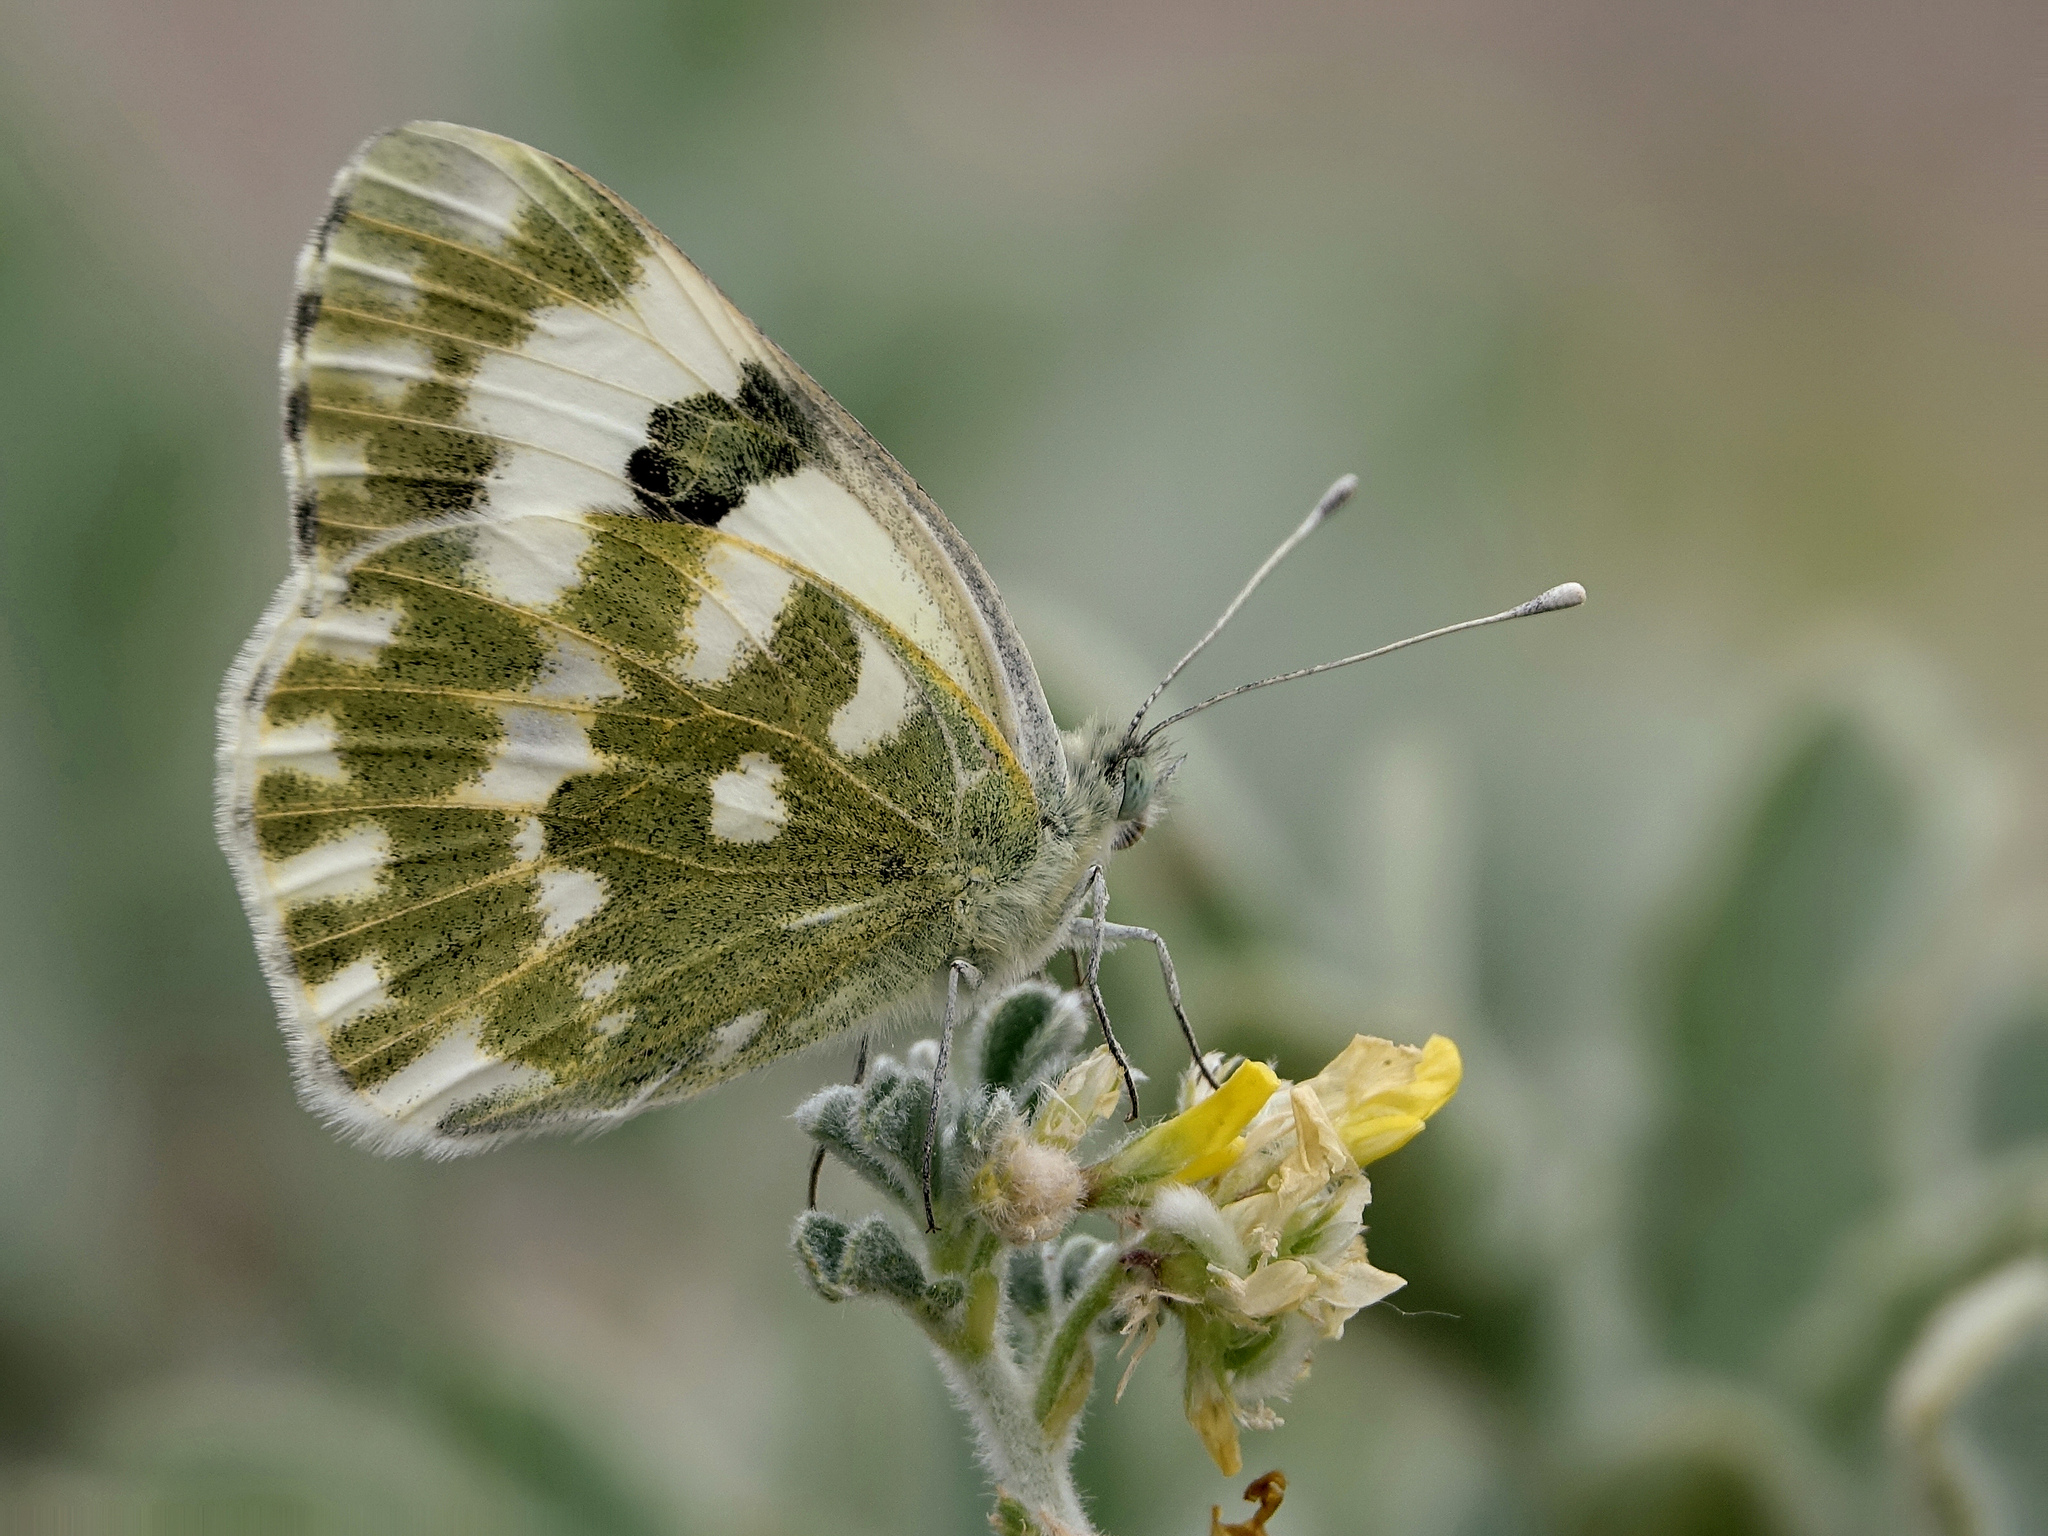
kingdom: Animalia
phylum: Arthropoda
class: Insecta
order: Lepidoptera
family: Pieridae
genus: Pontia
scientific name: Pontia edusa
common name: Eastern bath white
